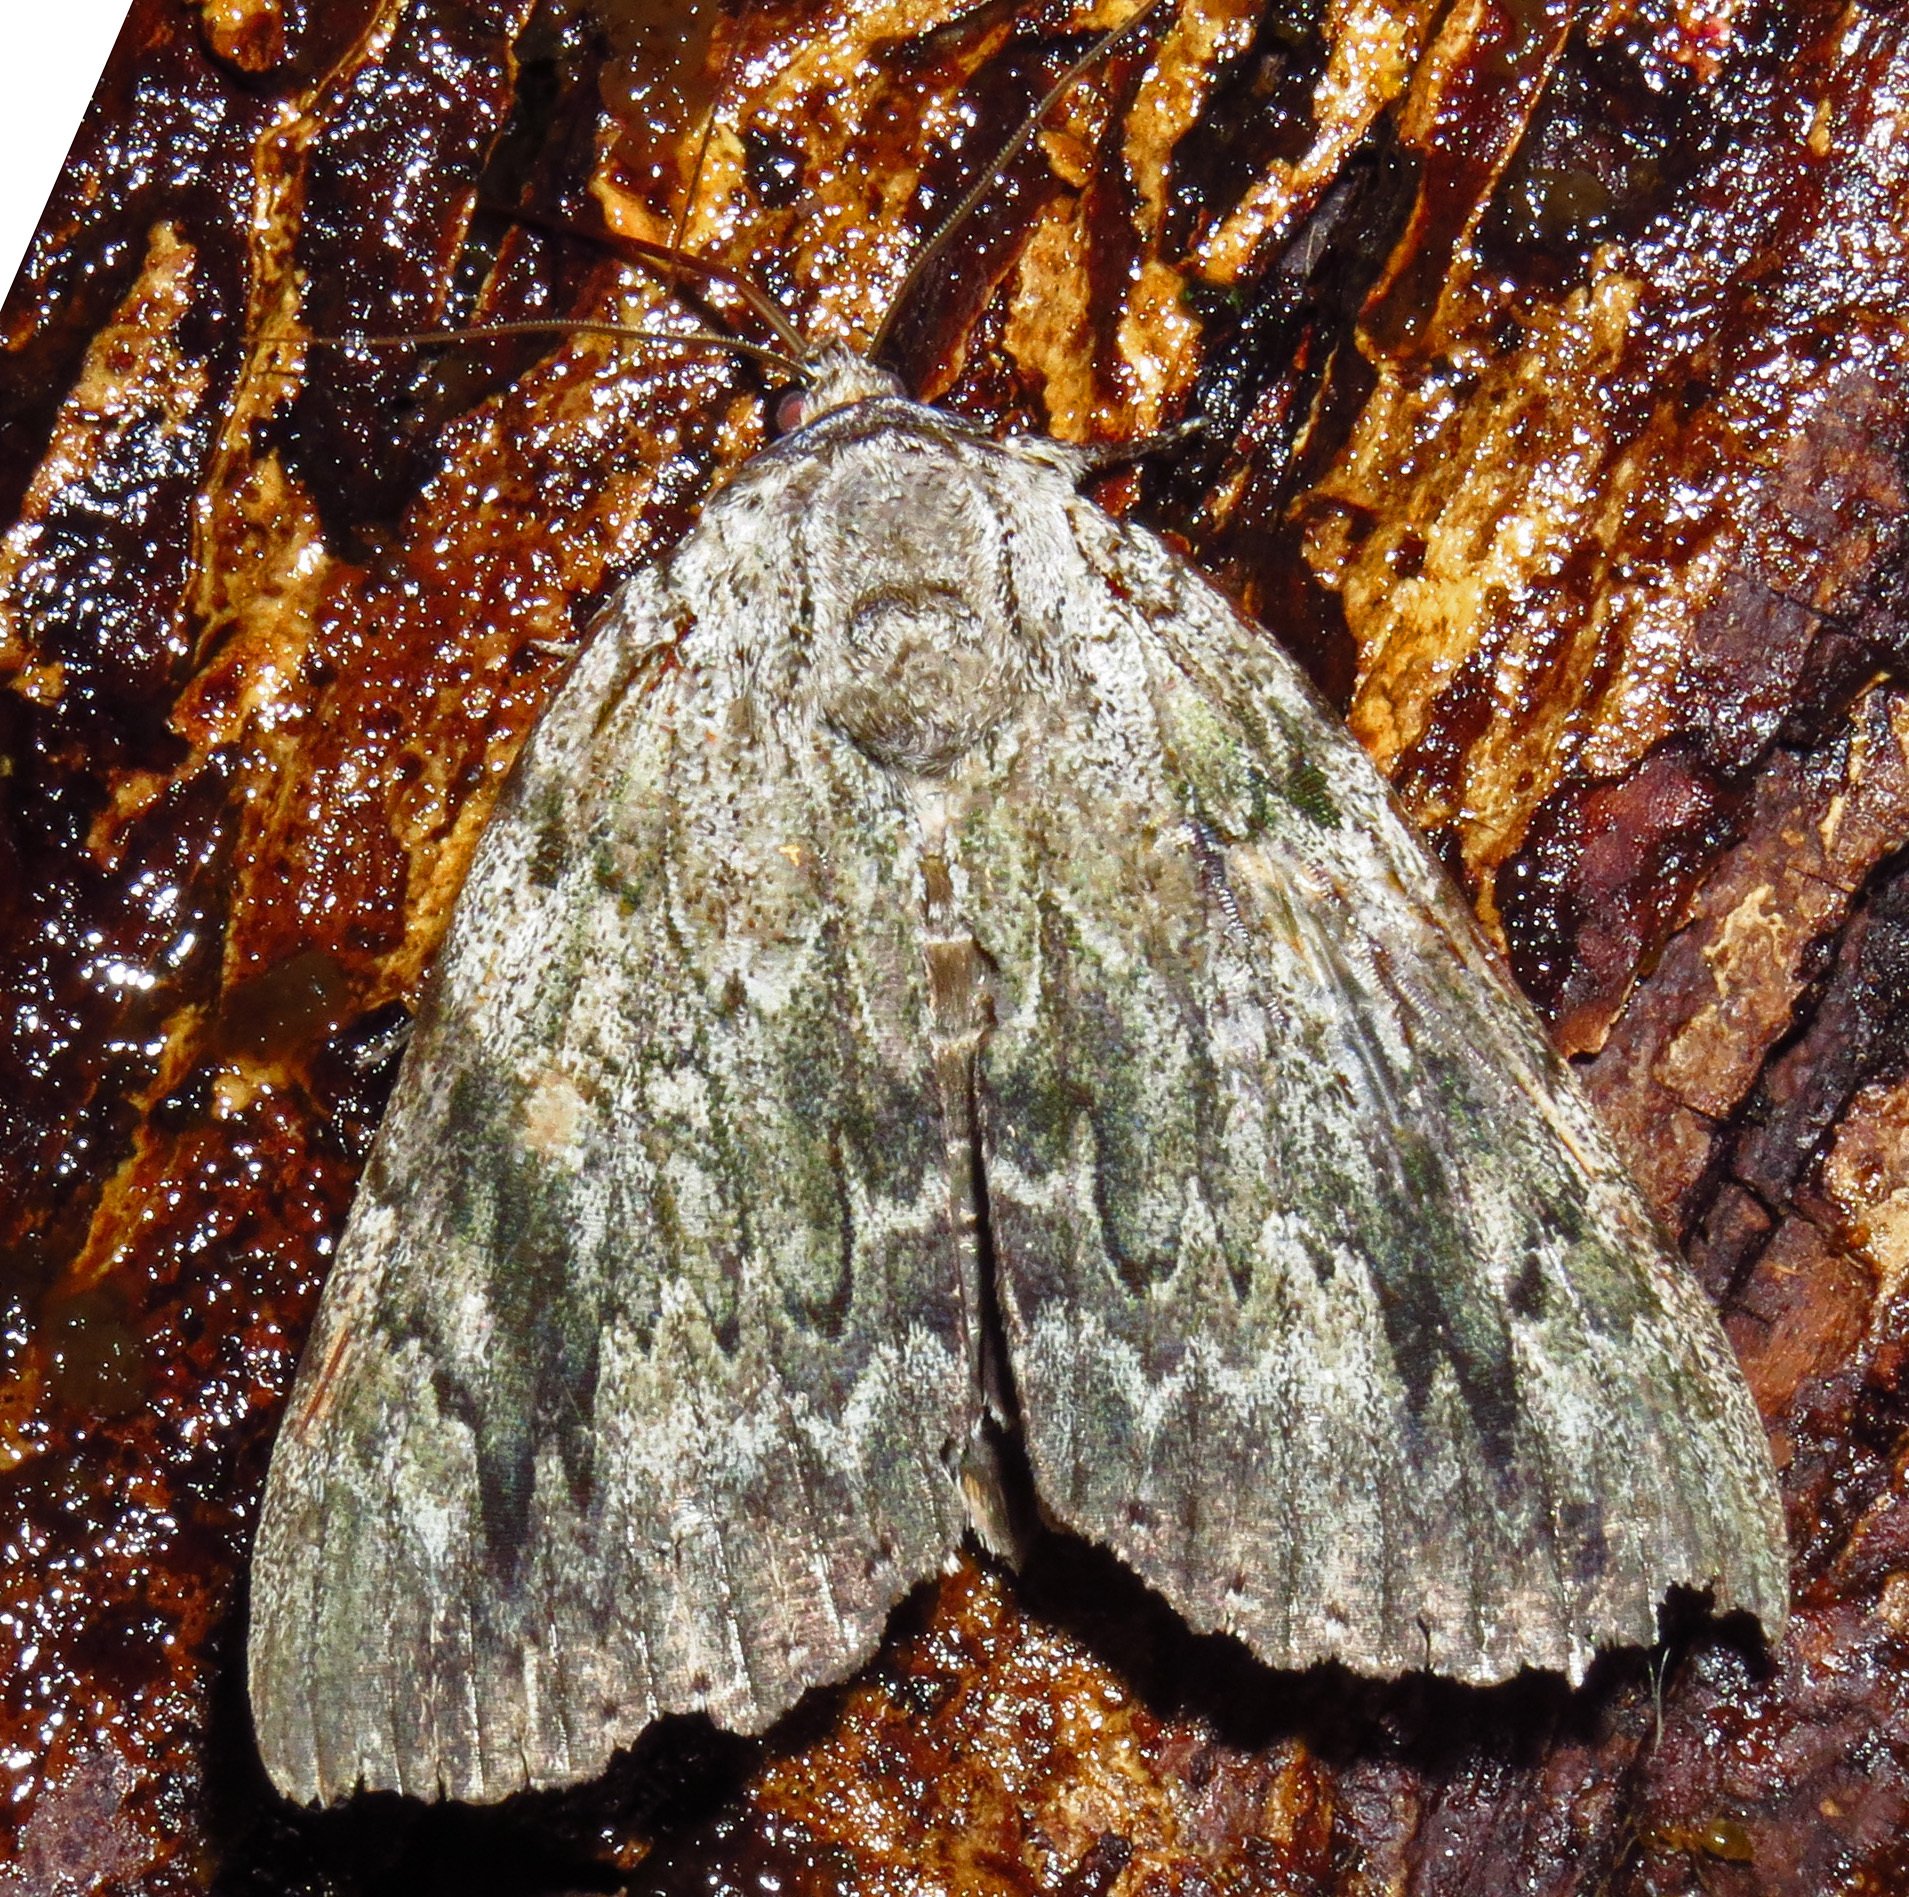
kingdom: Animalia
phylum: Arthropoda
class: Insecta
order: Lepidoptera
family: Erebidae
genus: Catocala
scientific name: Catocala maestosa
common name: Sad underwing
